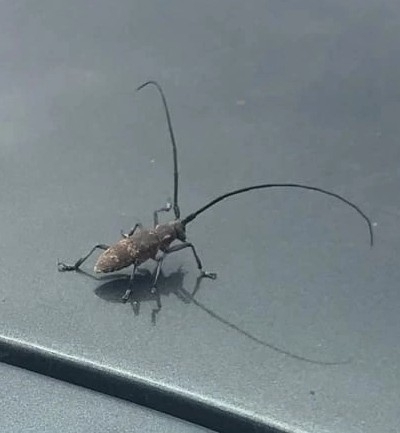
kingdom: Animalia
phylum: Arthropoda
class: Insecta
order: Coleoptera
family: Cerambycidae
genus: Monochamus
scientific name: Monochamus galloprovincialis
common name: Pine sawyer
